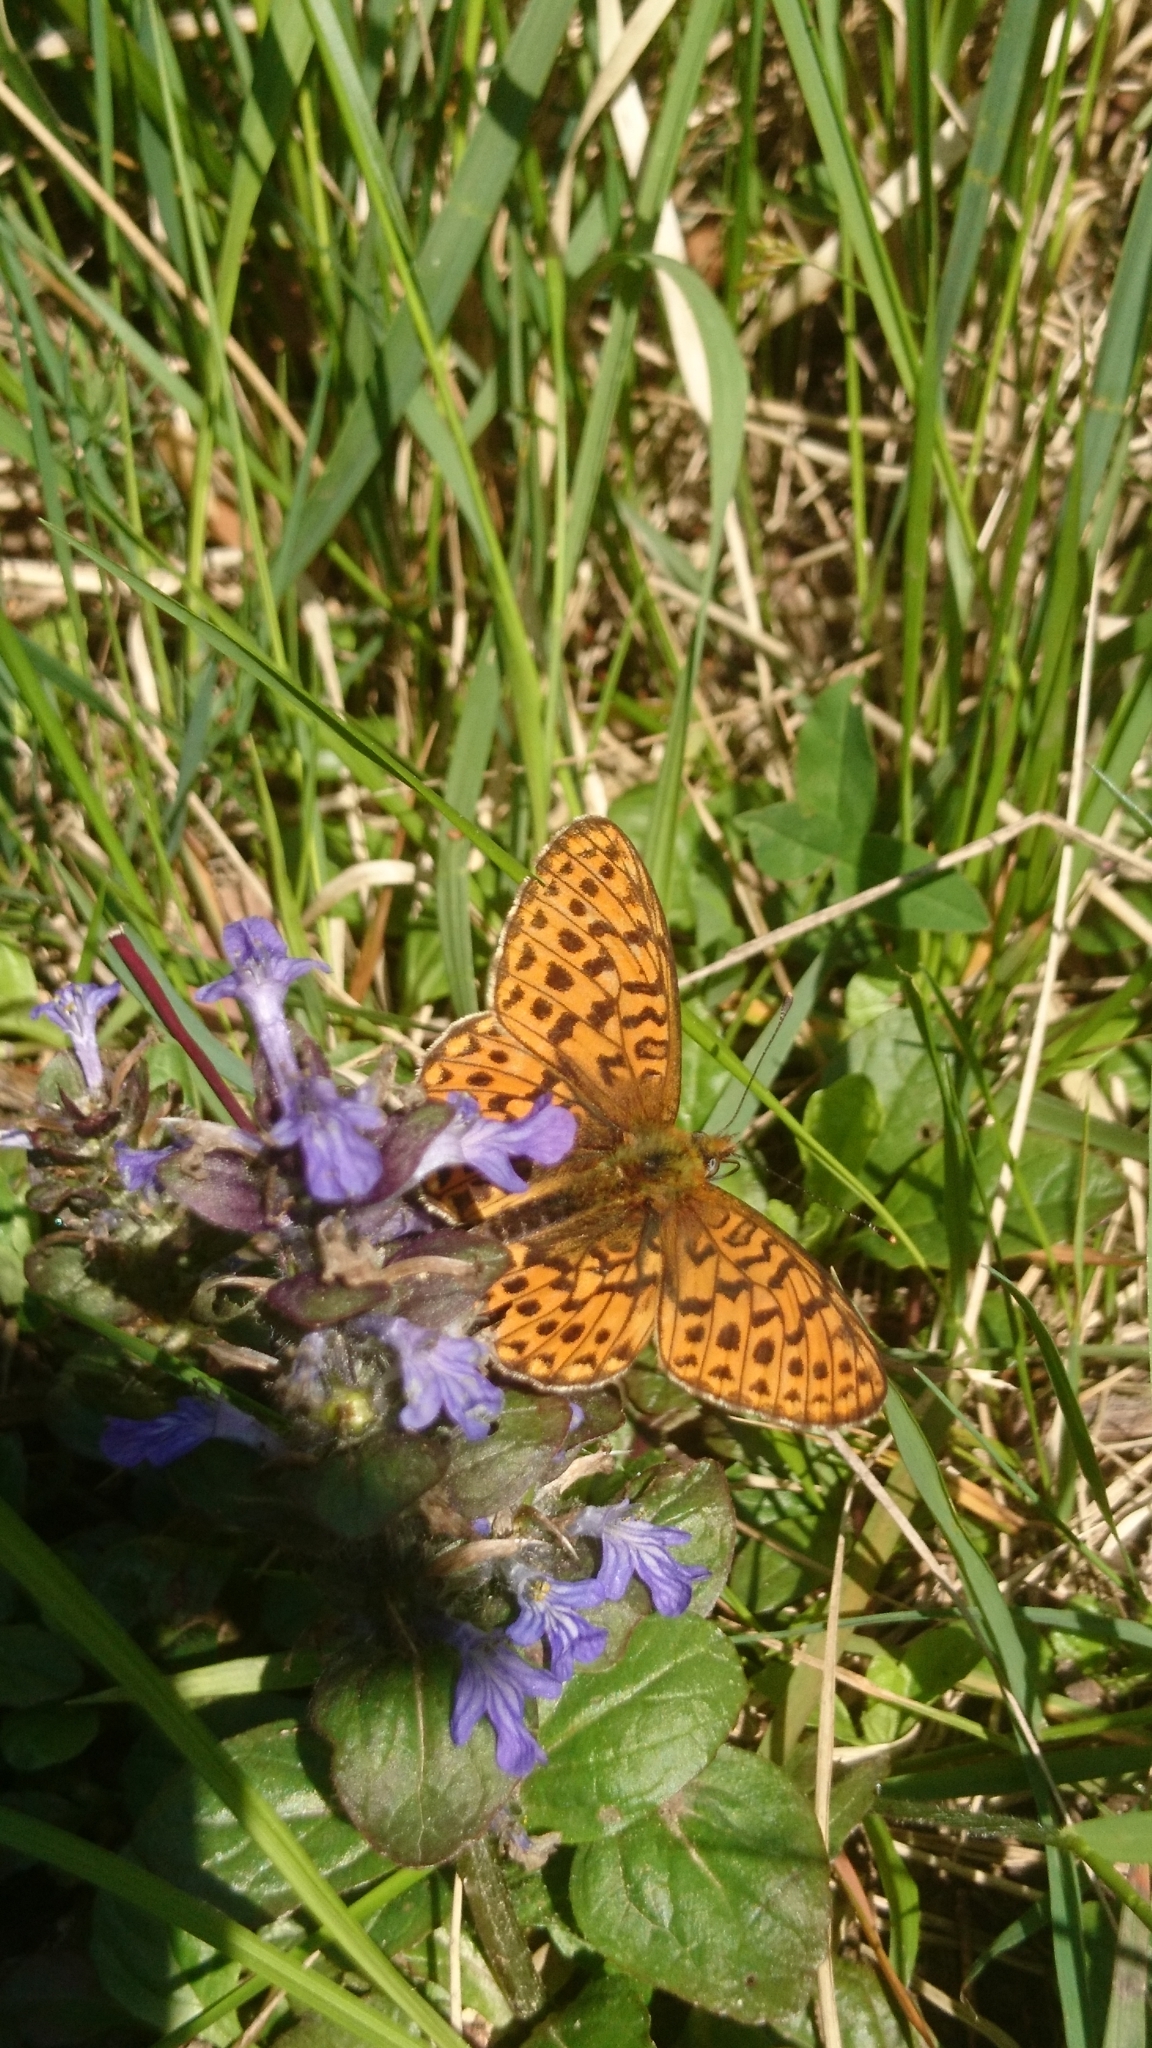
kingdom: Animalia
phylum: Arthropoda
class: Insecta
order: Lepidoptera
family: Nymphalidae
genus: Clossiana
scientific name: Clossiana euphrosyne
